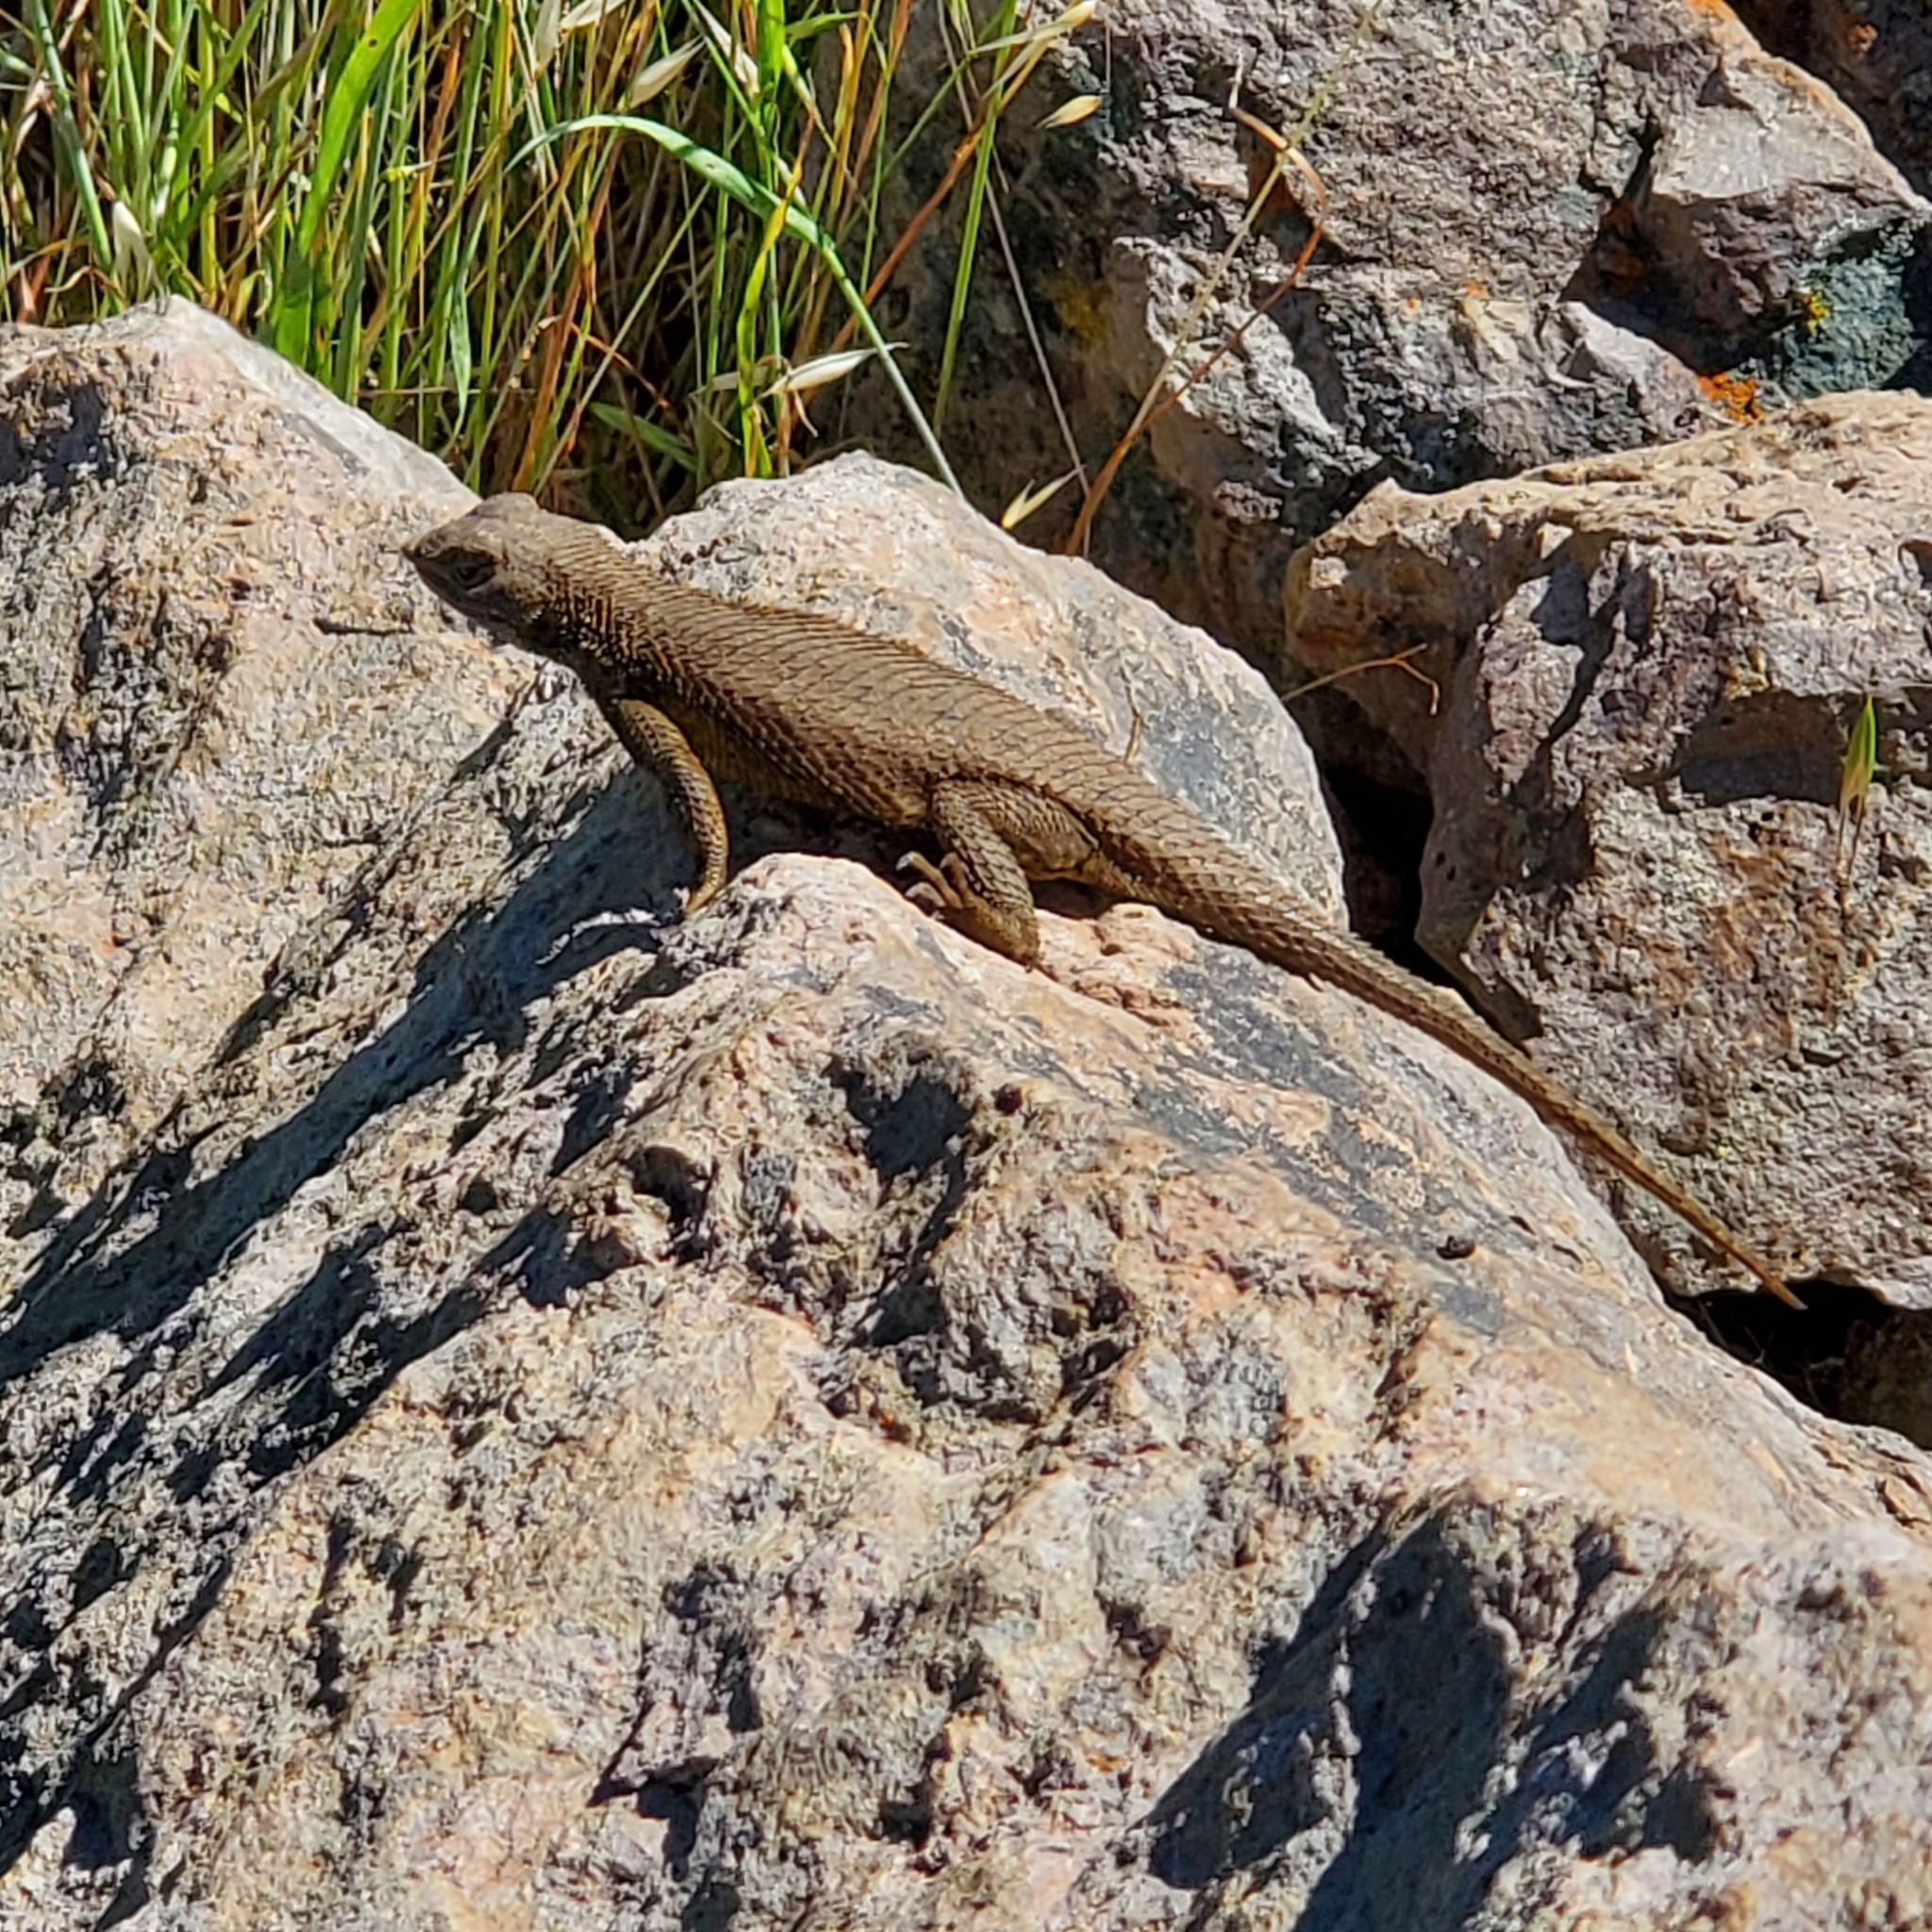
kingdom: Animalia
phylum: Chordata
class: Squamata
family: Phrynosomatidae
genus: Sceloporus
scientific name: Sceloporus occidentalis
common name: Western fence lizard
